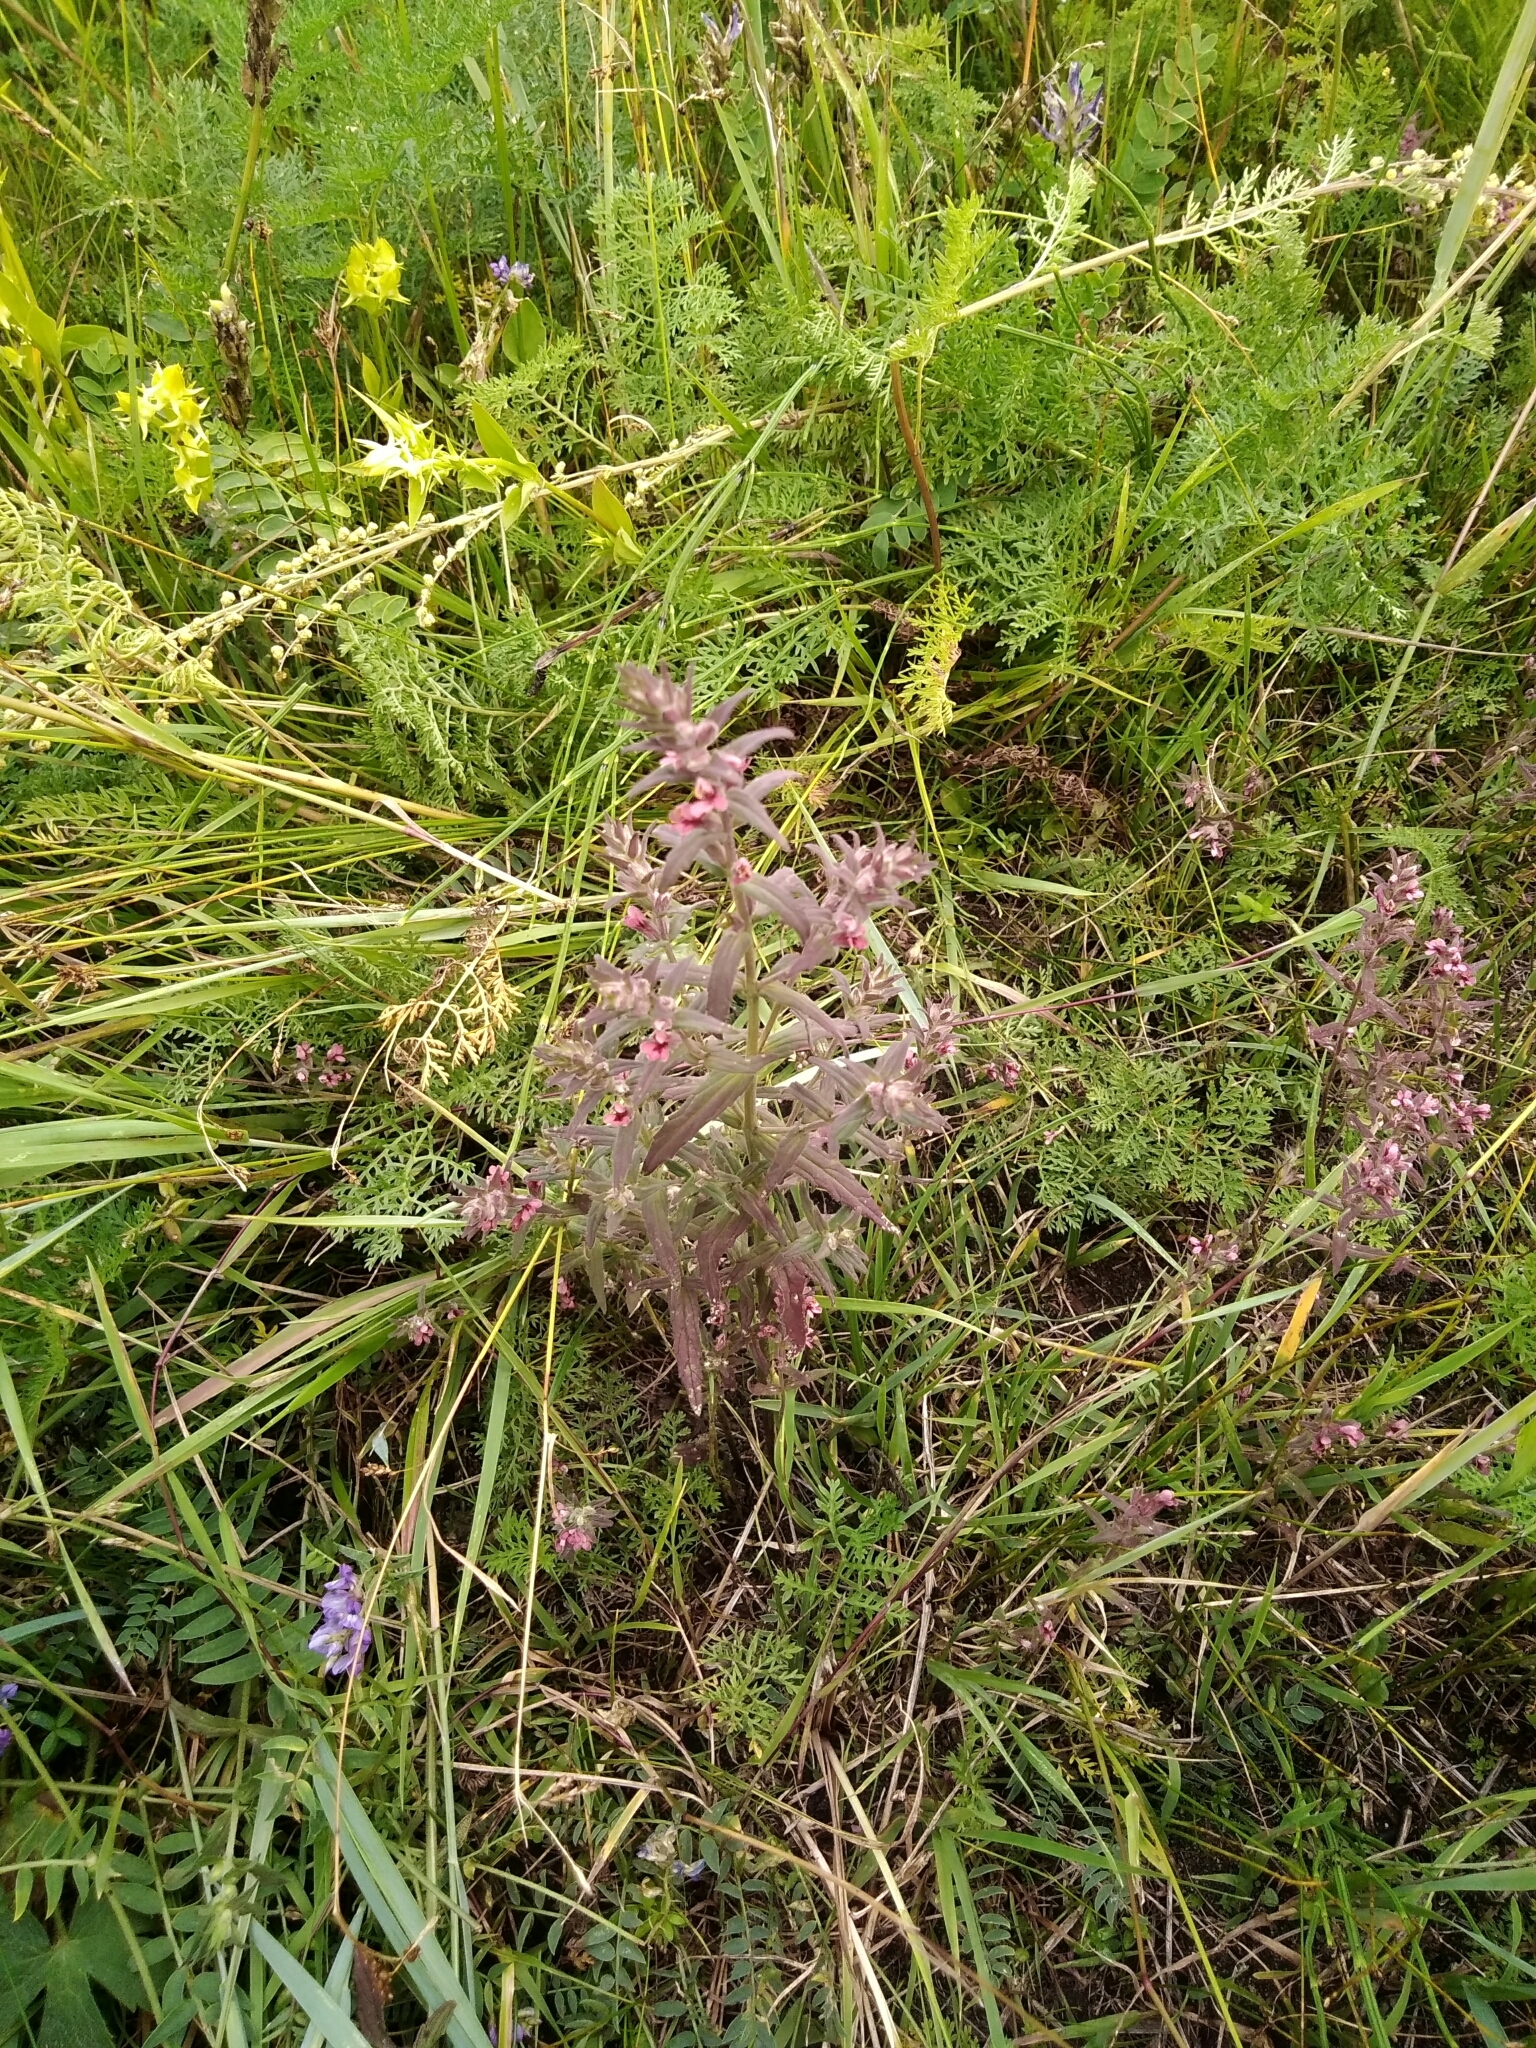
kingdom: Plantae
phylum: Tracheophyta
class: Magnoliopsida
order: Lamiales
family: Orobanchaceae
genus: Odontites
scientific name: Odontites vulgaris
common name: Broomrape
